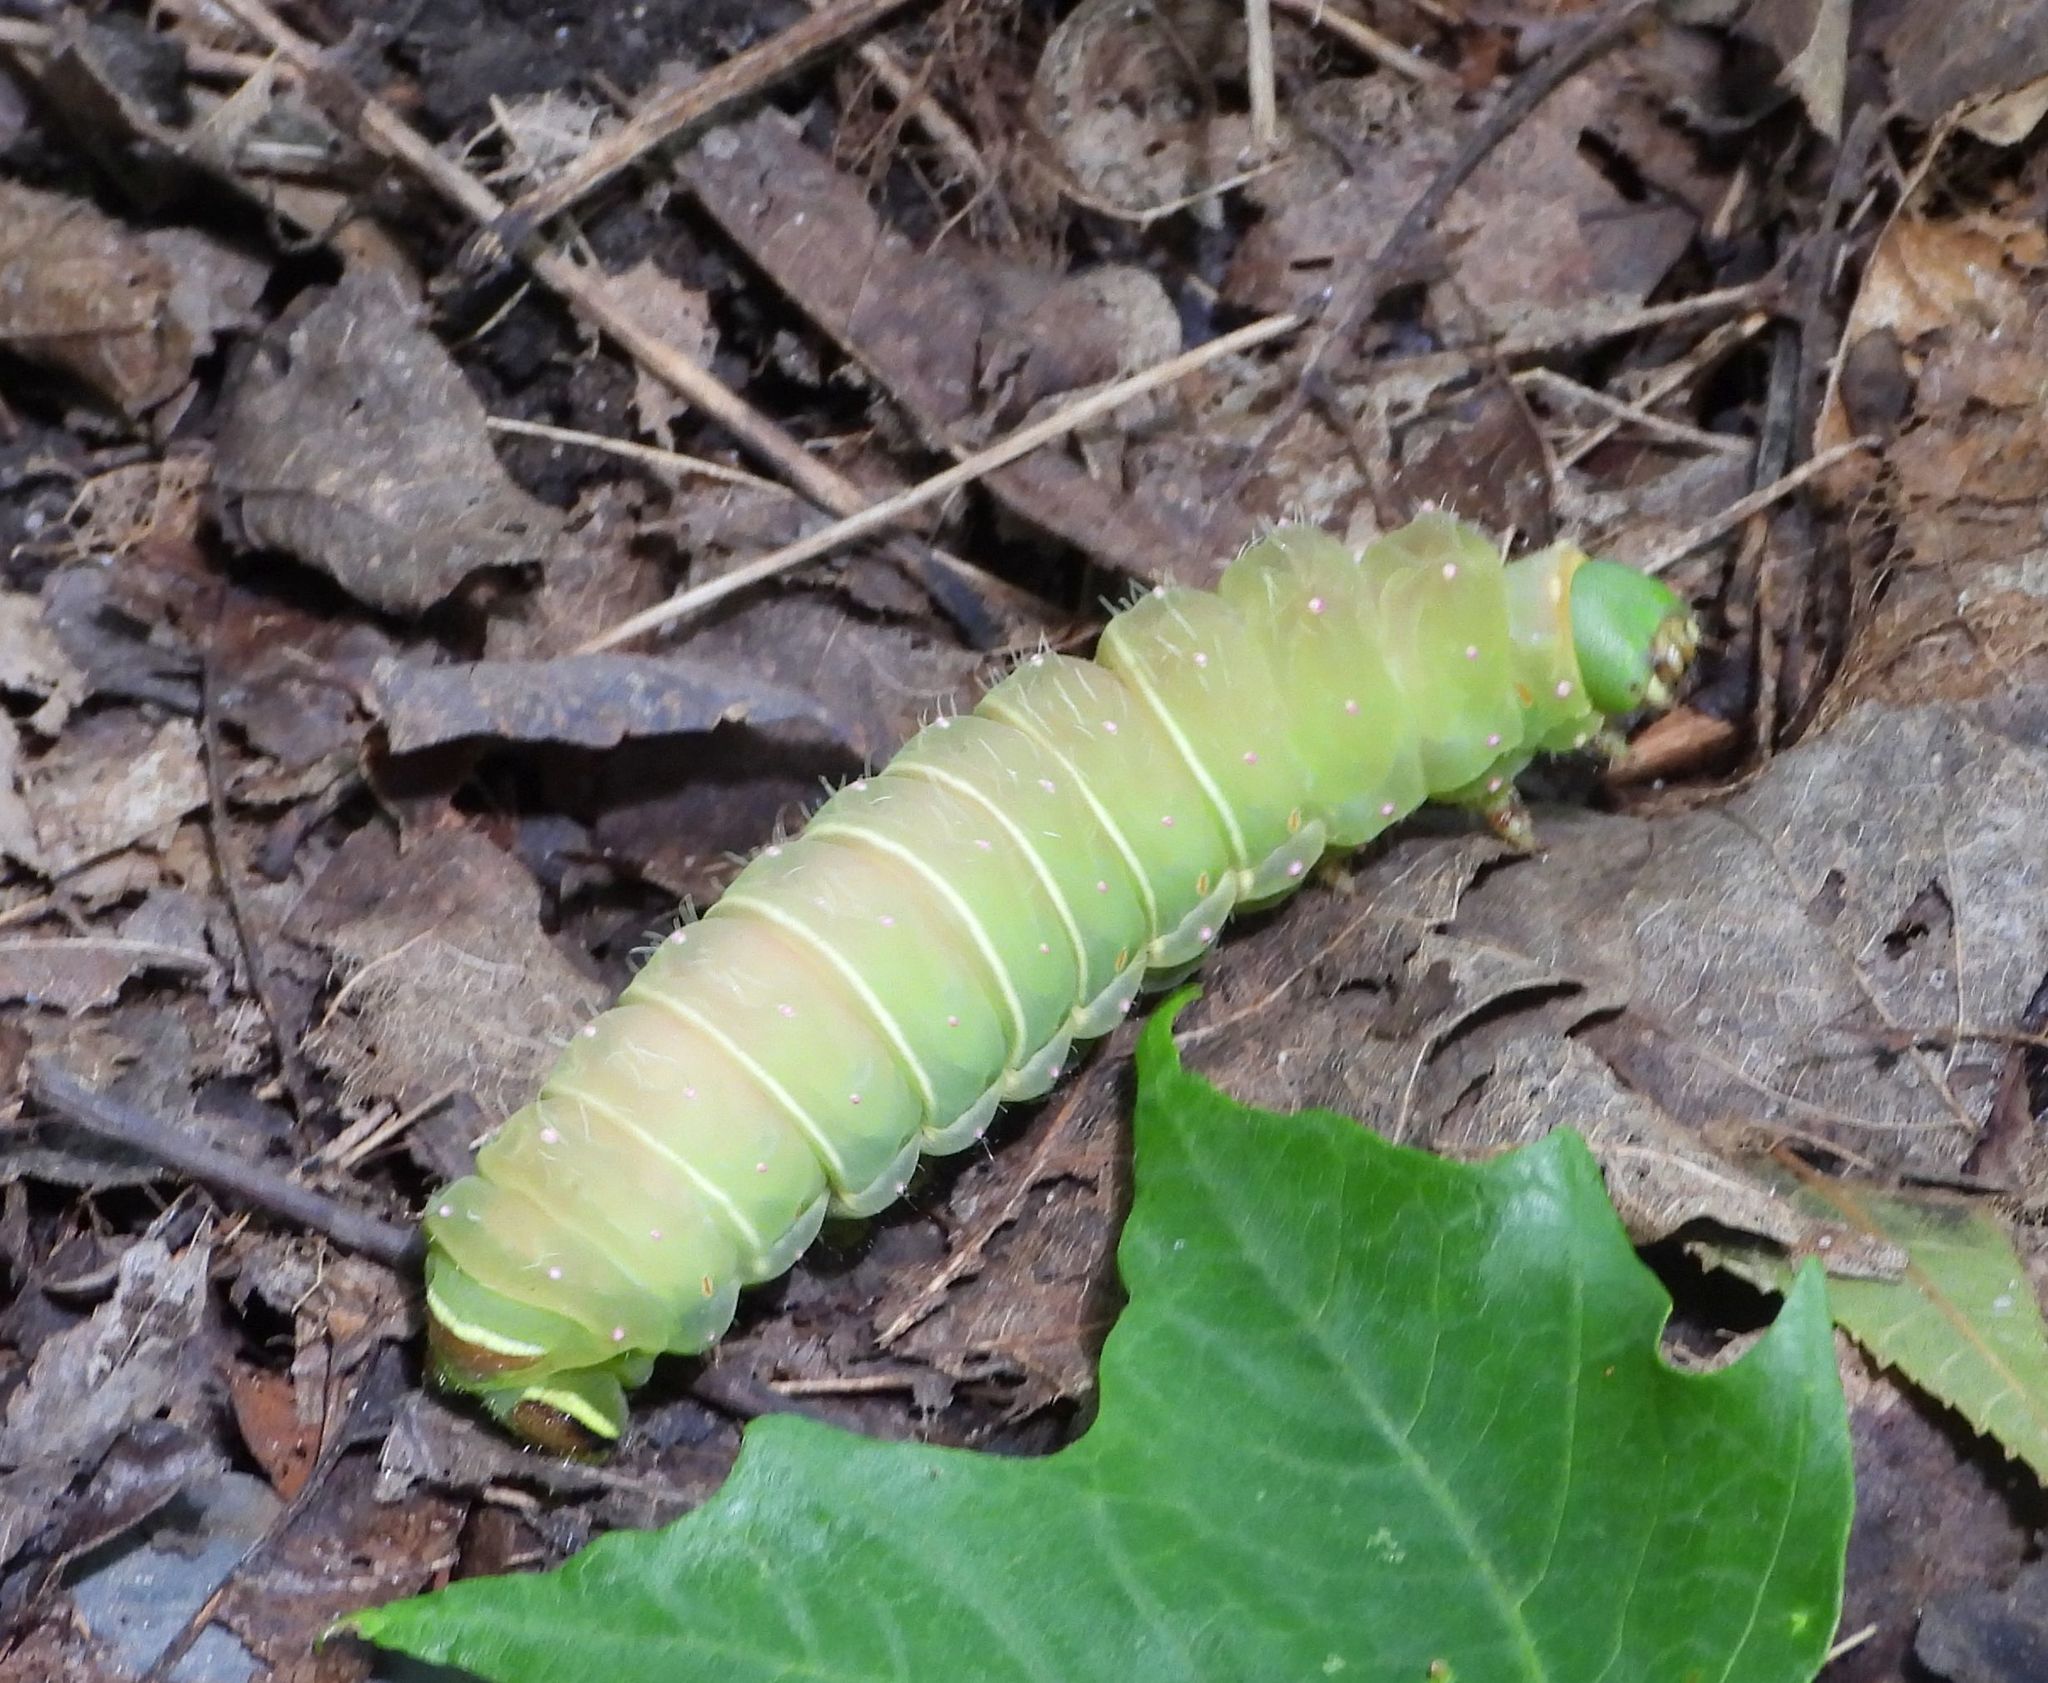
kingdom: Animalia
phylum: Arthropoda
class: Insecta
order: Lepidoptera
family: Saturniidae
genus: Actias
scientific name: Actias luna
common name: Luna moth
